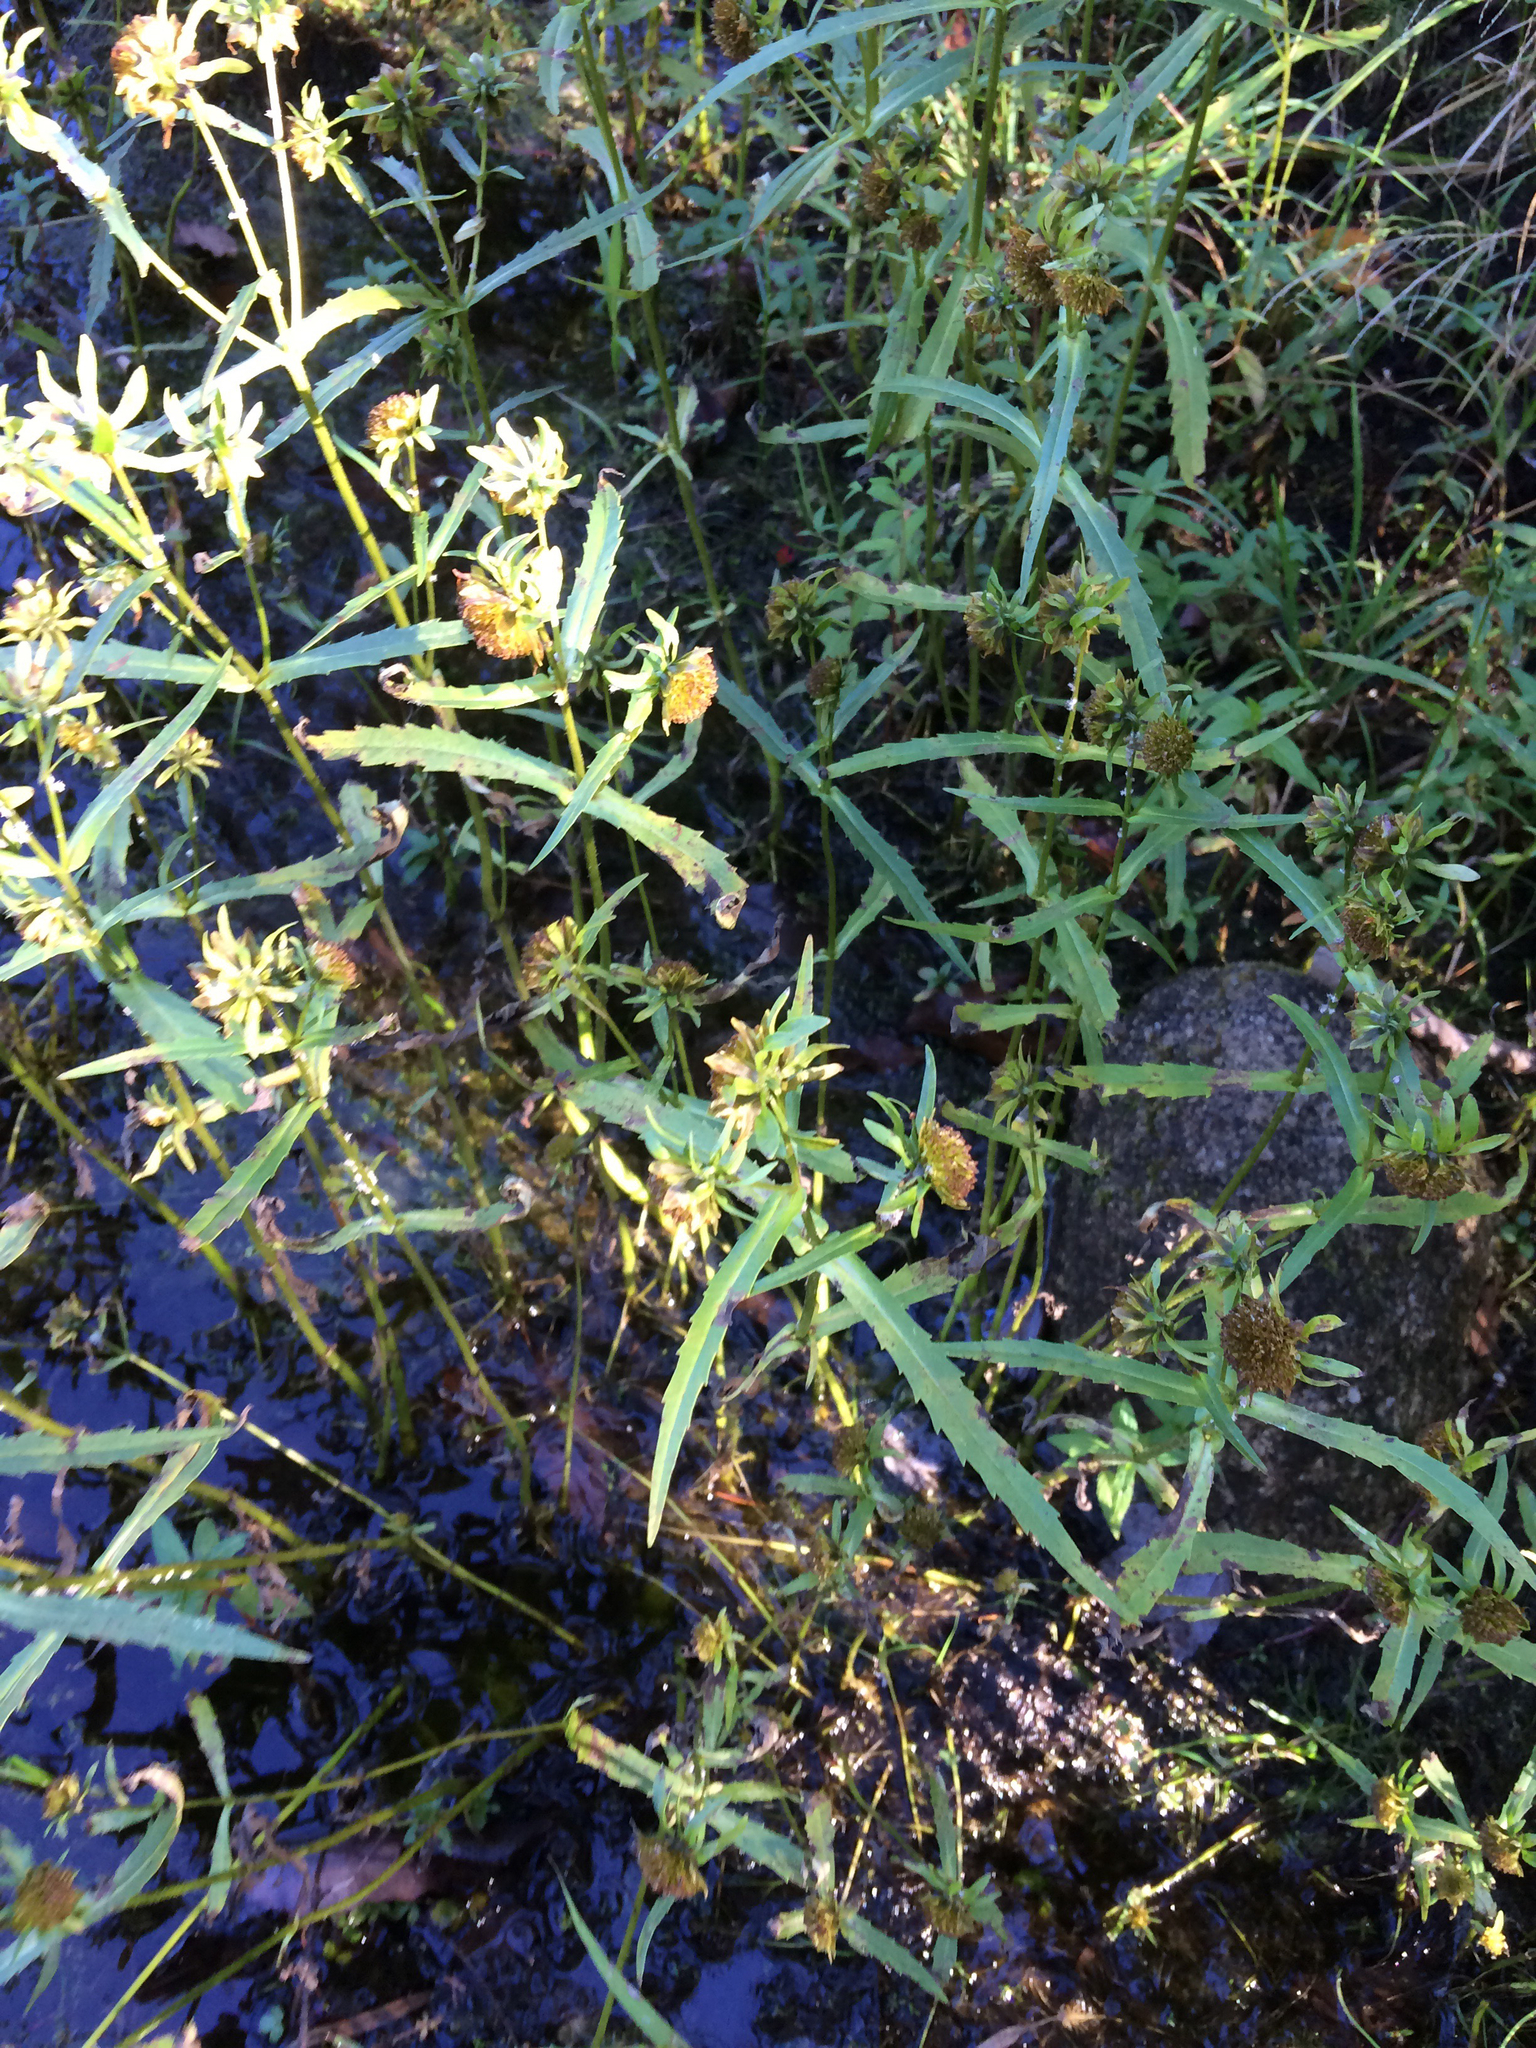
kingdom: Plantae
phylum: Tracheophyta
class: Magnoliopsida
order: Asterales
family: Asteraceae
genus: Bidens
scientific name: Bidens cernua
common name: Nodding bur-marigold
